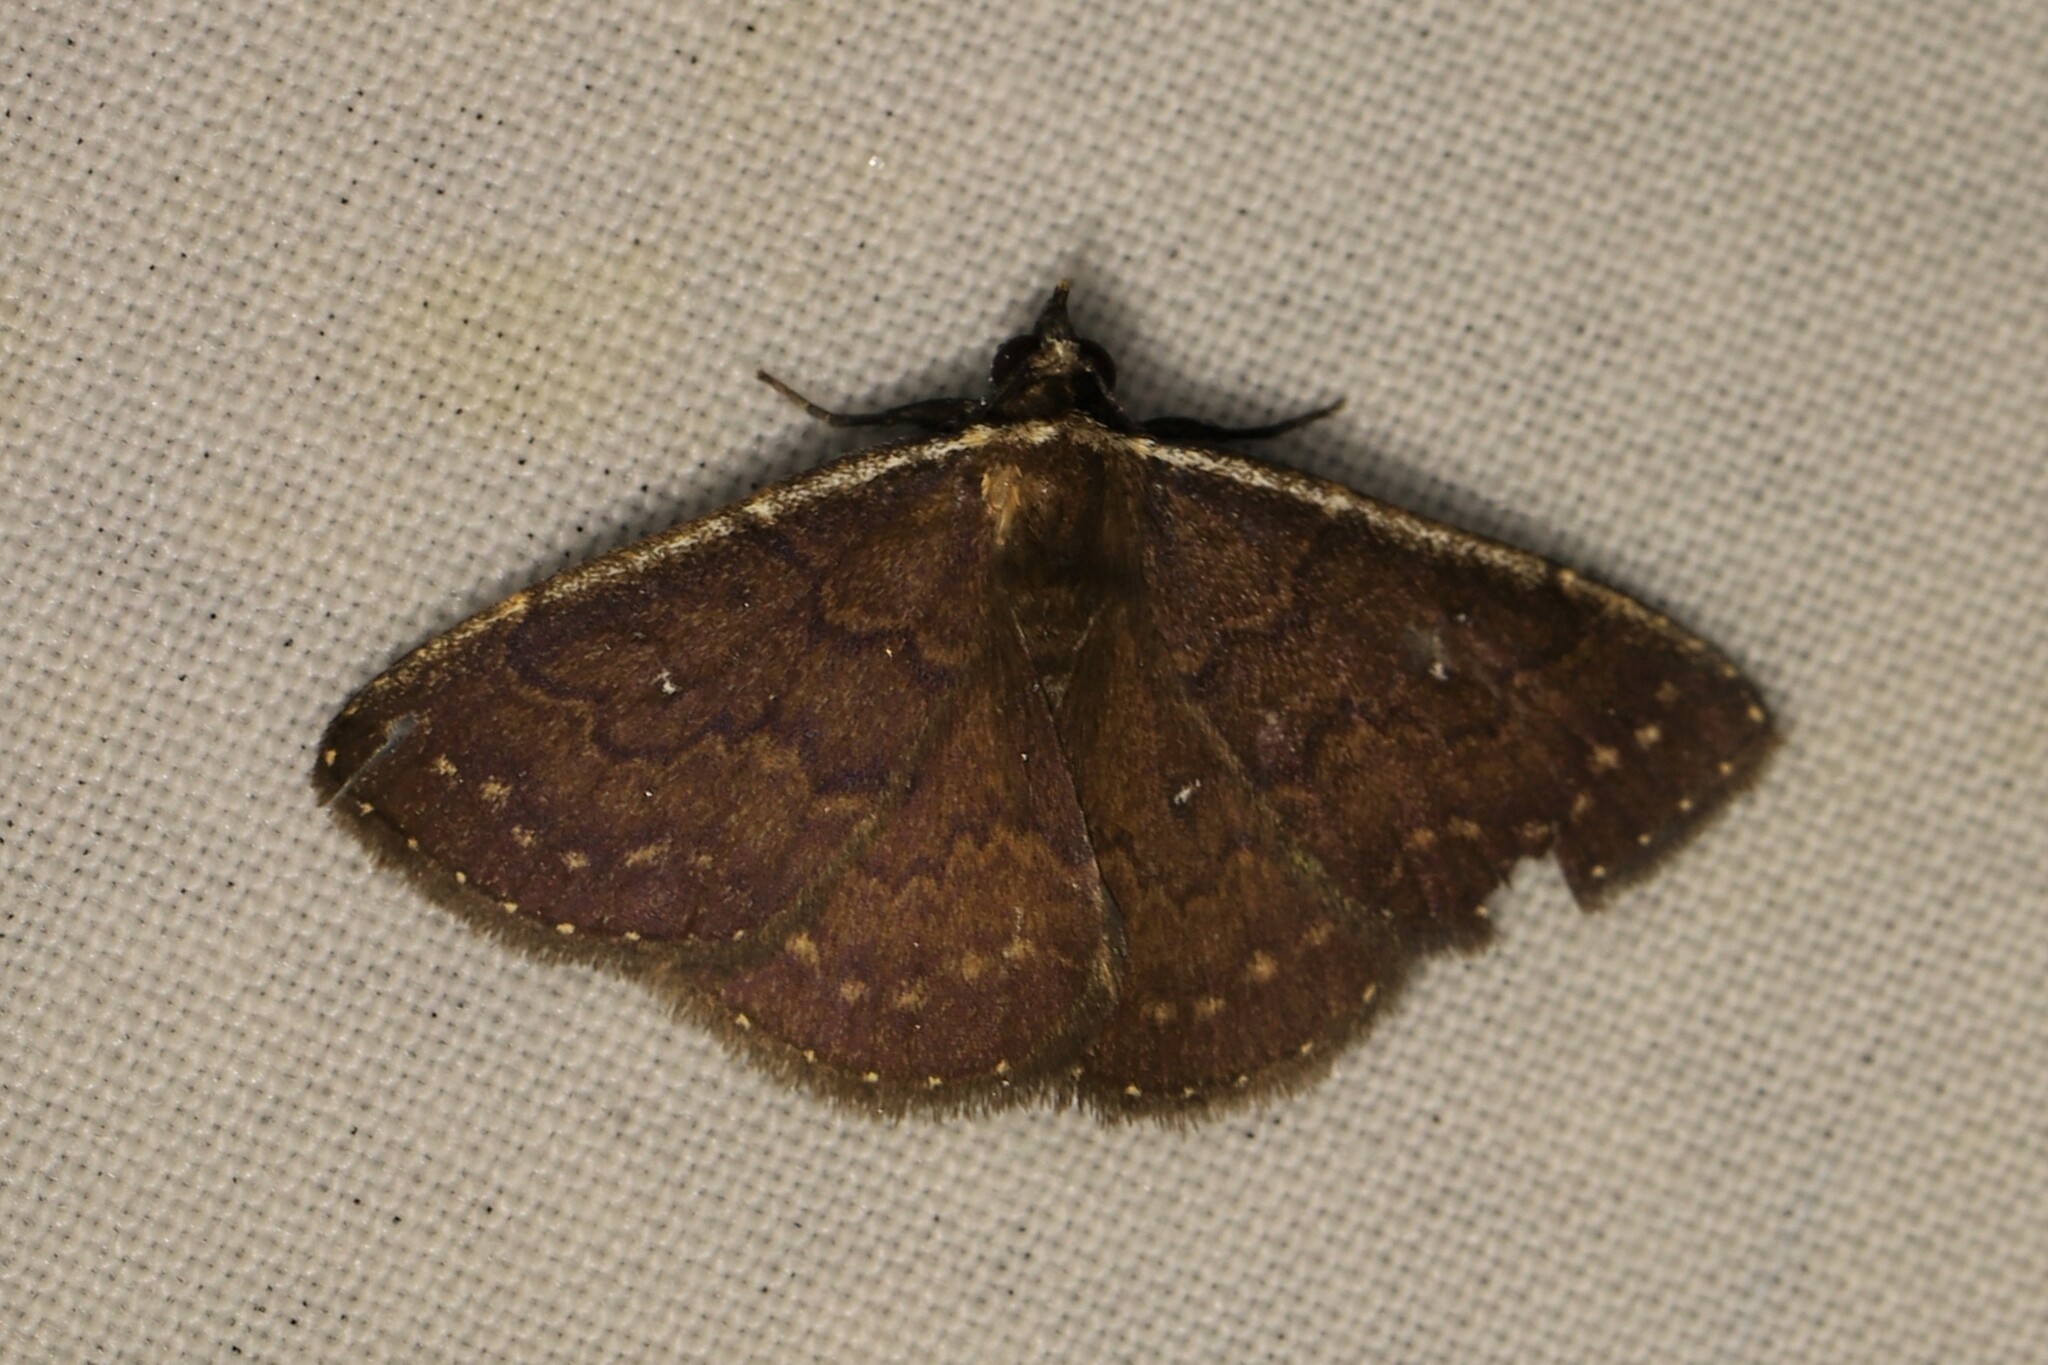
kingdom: Animalia
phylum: Arthropoda
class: Insecta
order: Lepidoptera
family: Erebidae
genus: Plynteria
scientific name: Plynteria irrespondens
